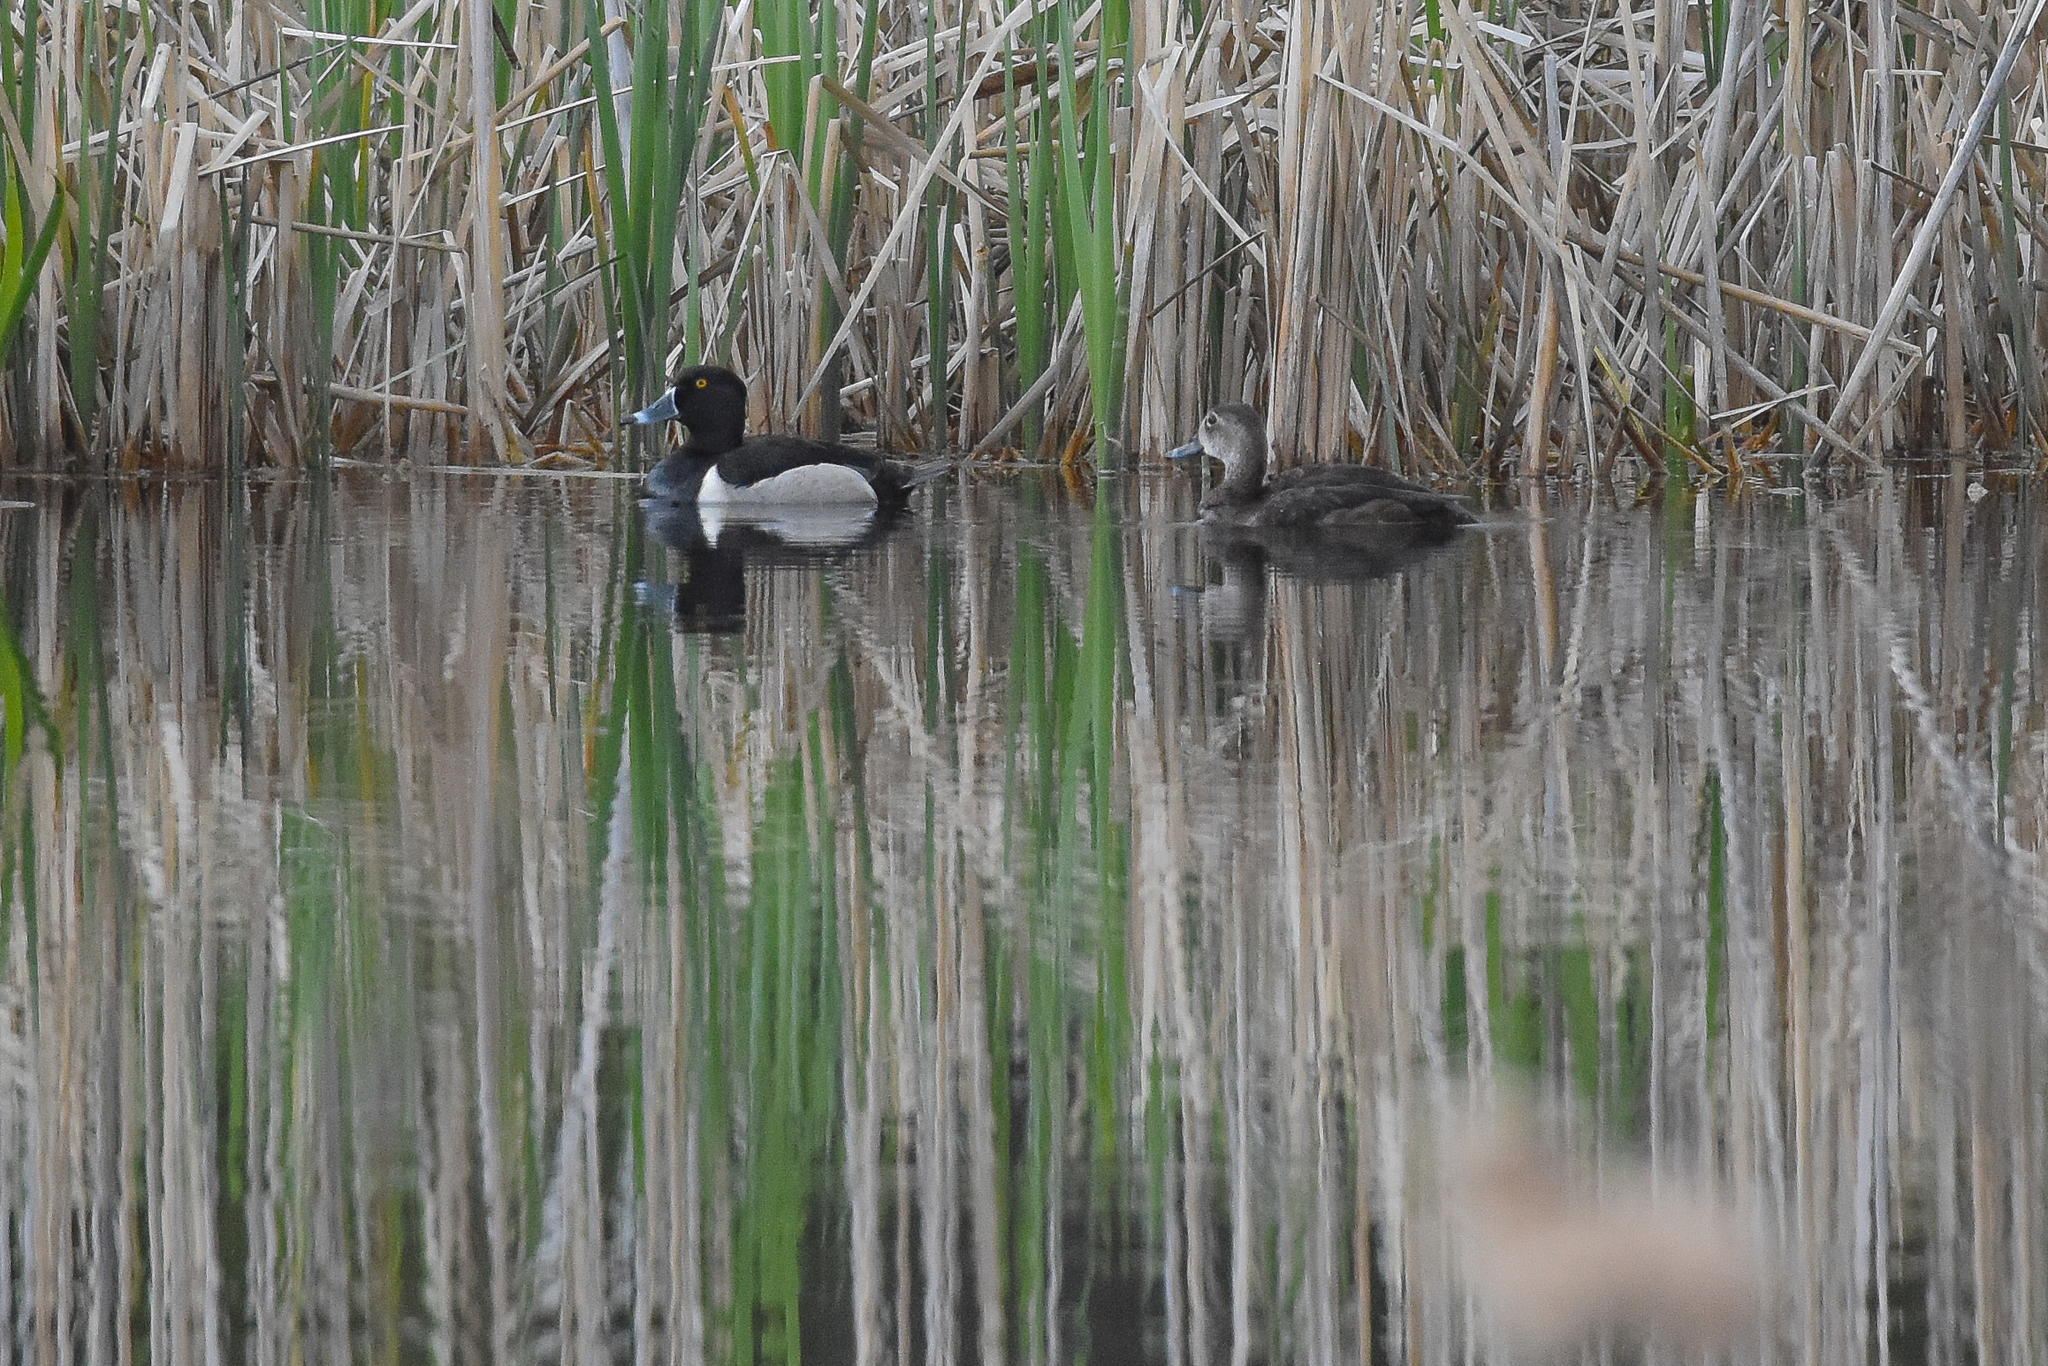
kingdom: Animalia
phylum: Chordata
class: Aves
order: Anseriformes
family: Anatidae
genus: Aythya
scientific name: Aythya collaris
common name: Ring-necked duck
